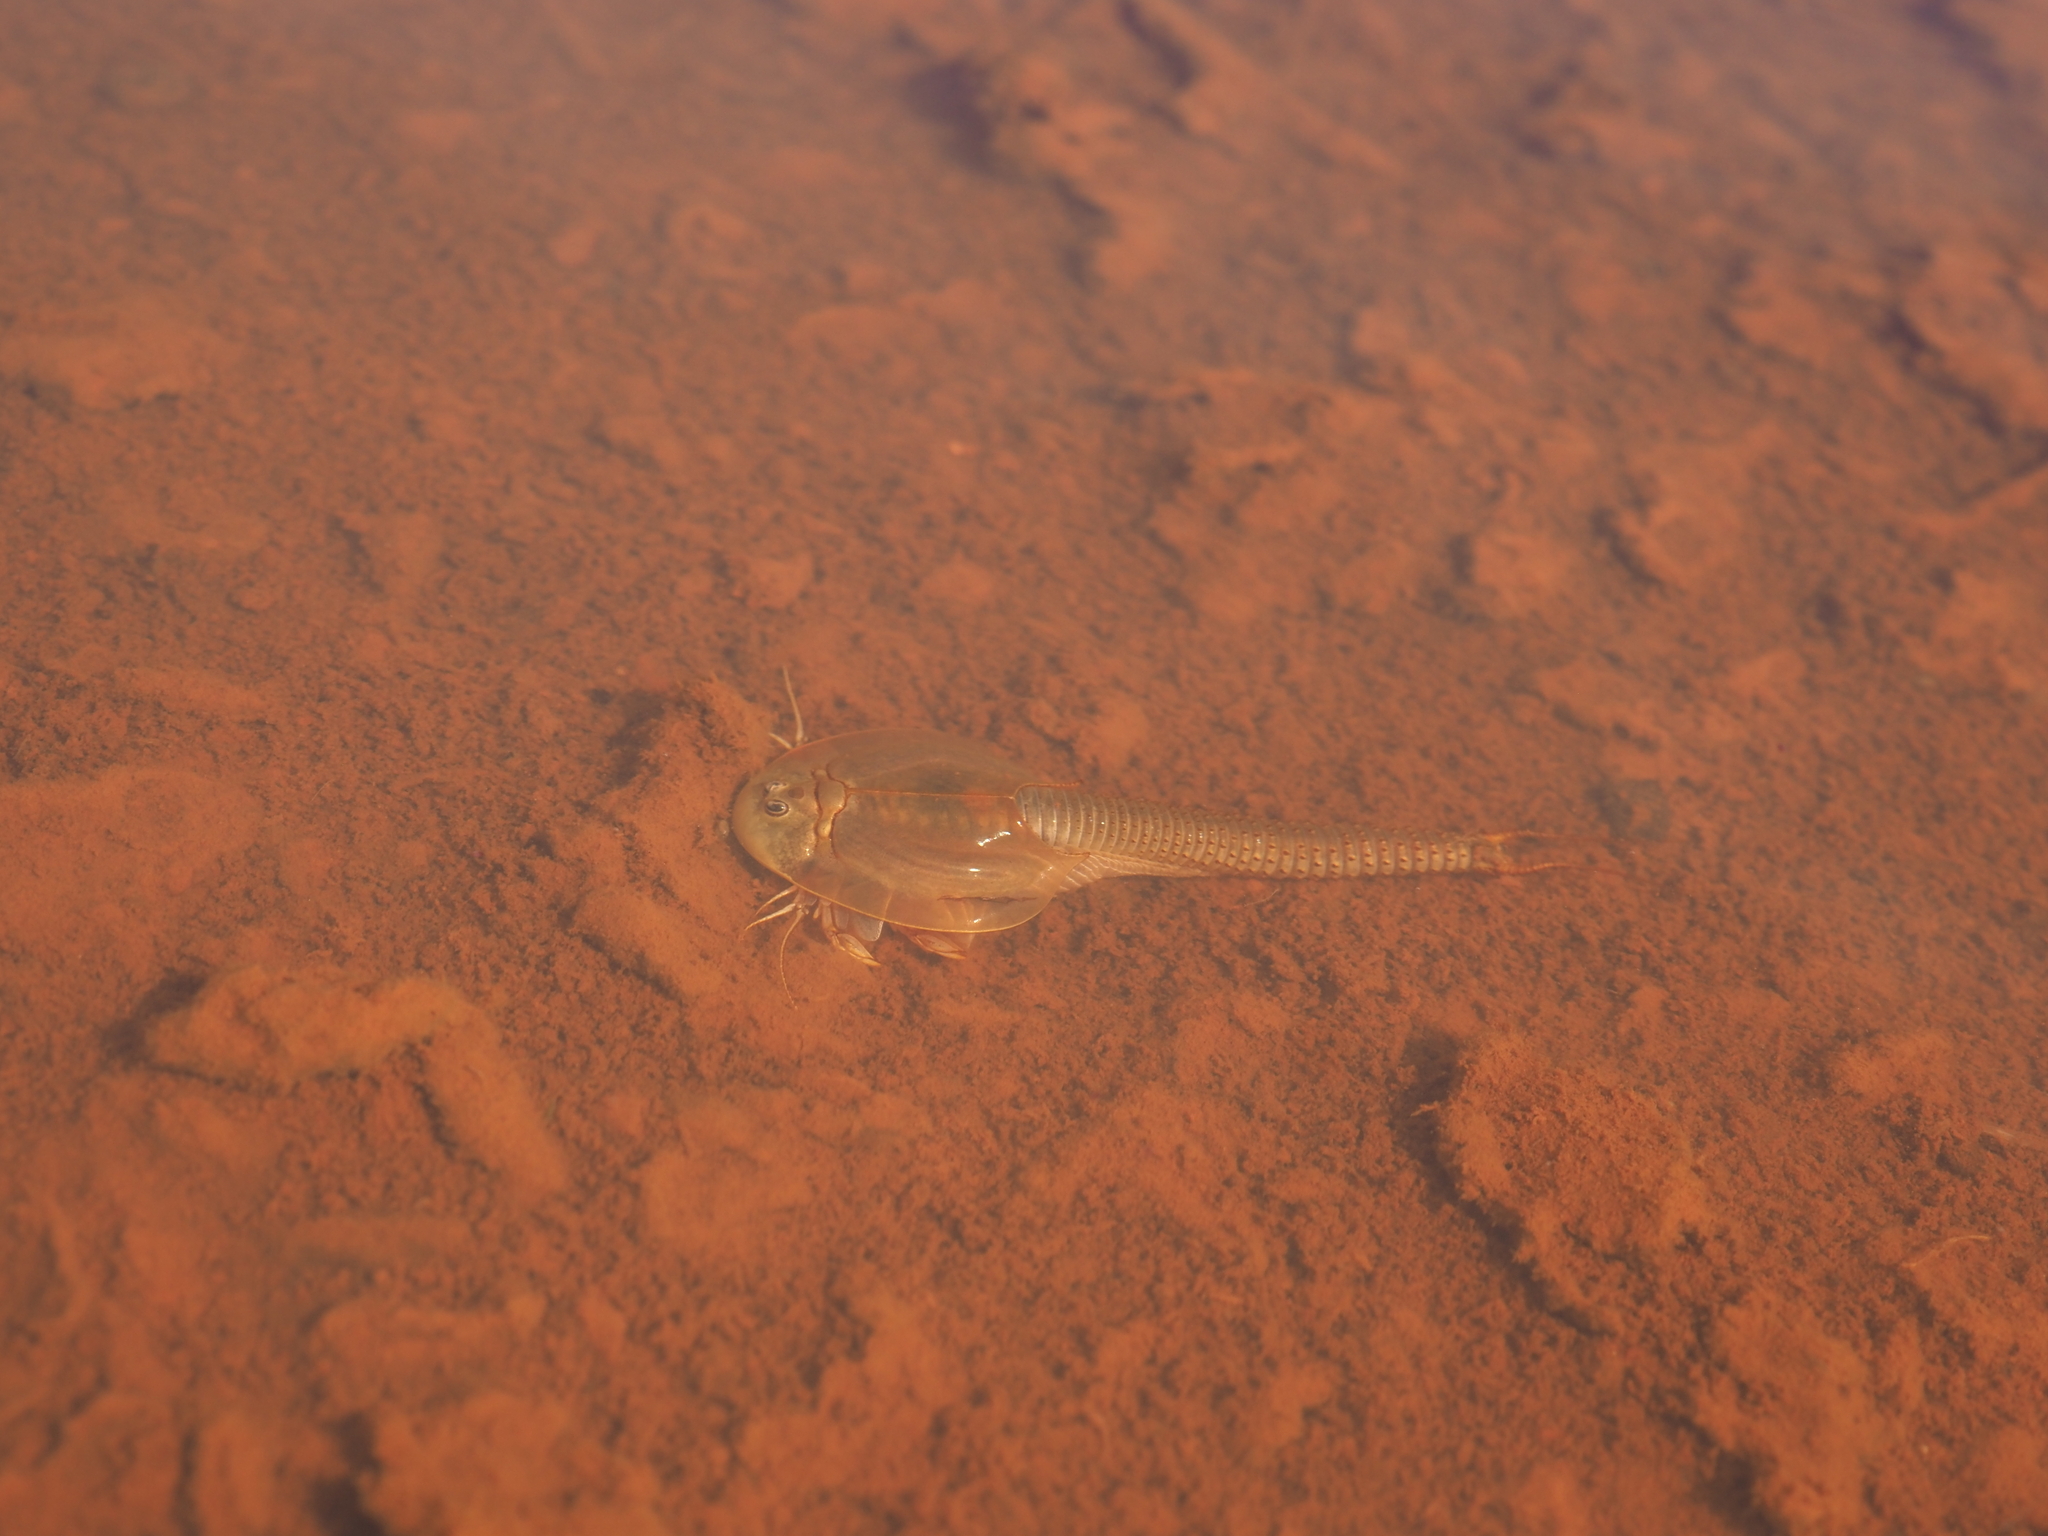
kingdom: Animalia
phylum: Arthropoda
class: Branchiopoda
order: Notostraca
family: Triopsidae
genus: Triops
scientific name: Triops australiensis
